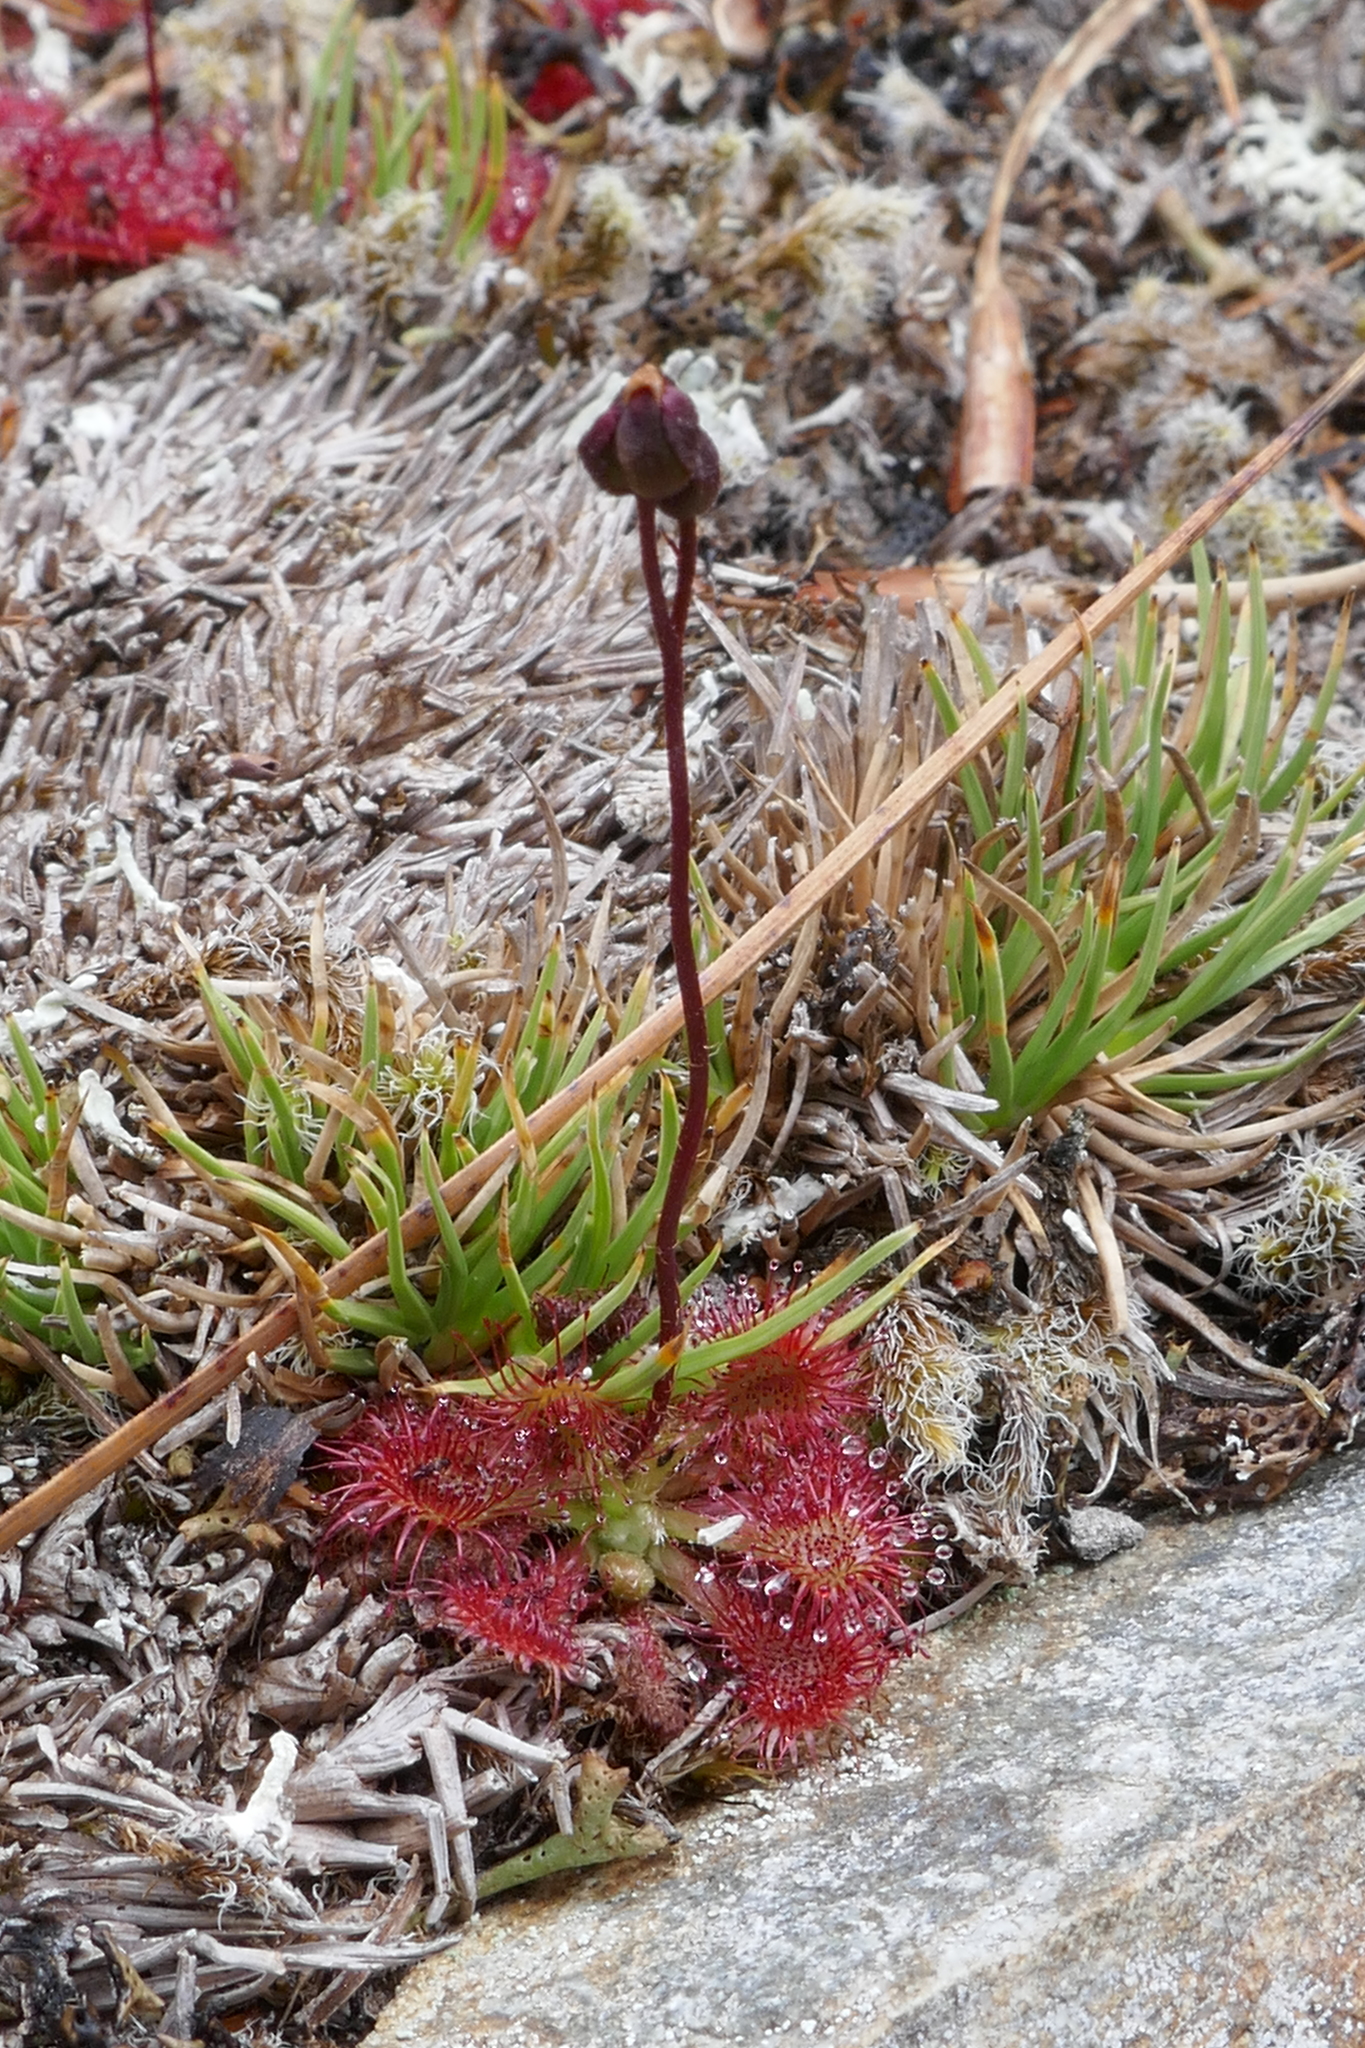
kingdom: Plantae
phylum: Tracheophyta
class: Magnoliopsida
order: Caryophyllales
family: Droseraceae
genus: Drosera
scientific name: Drosera spatulata
